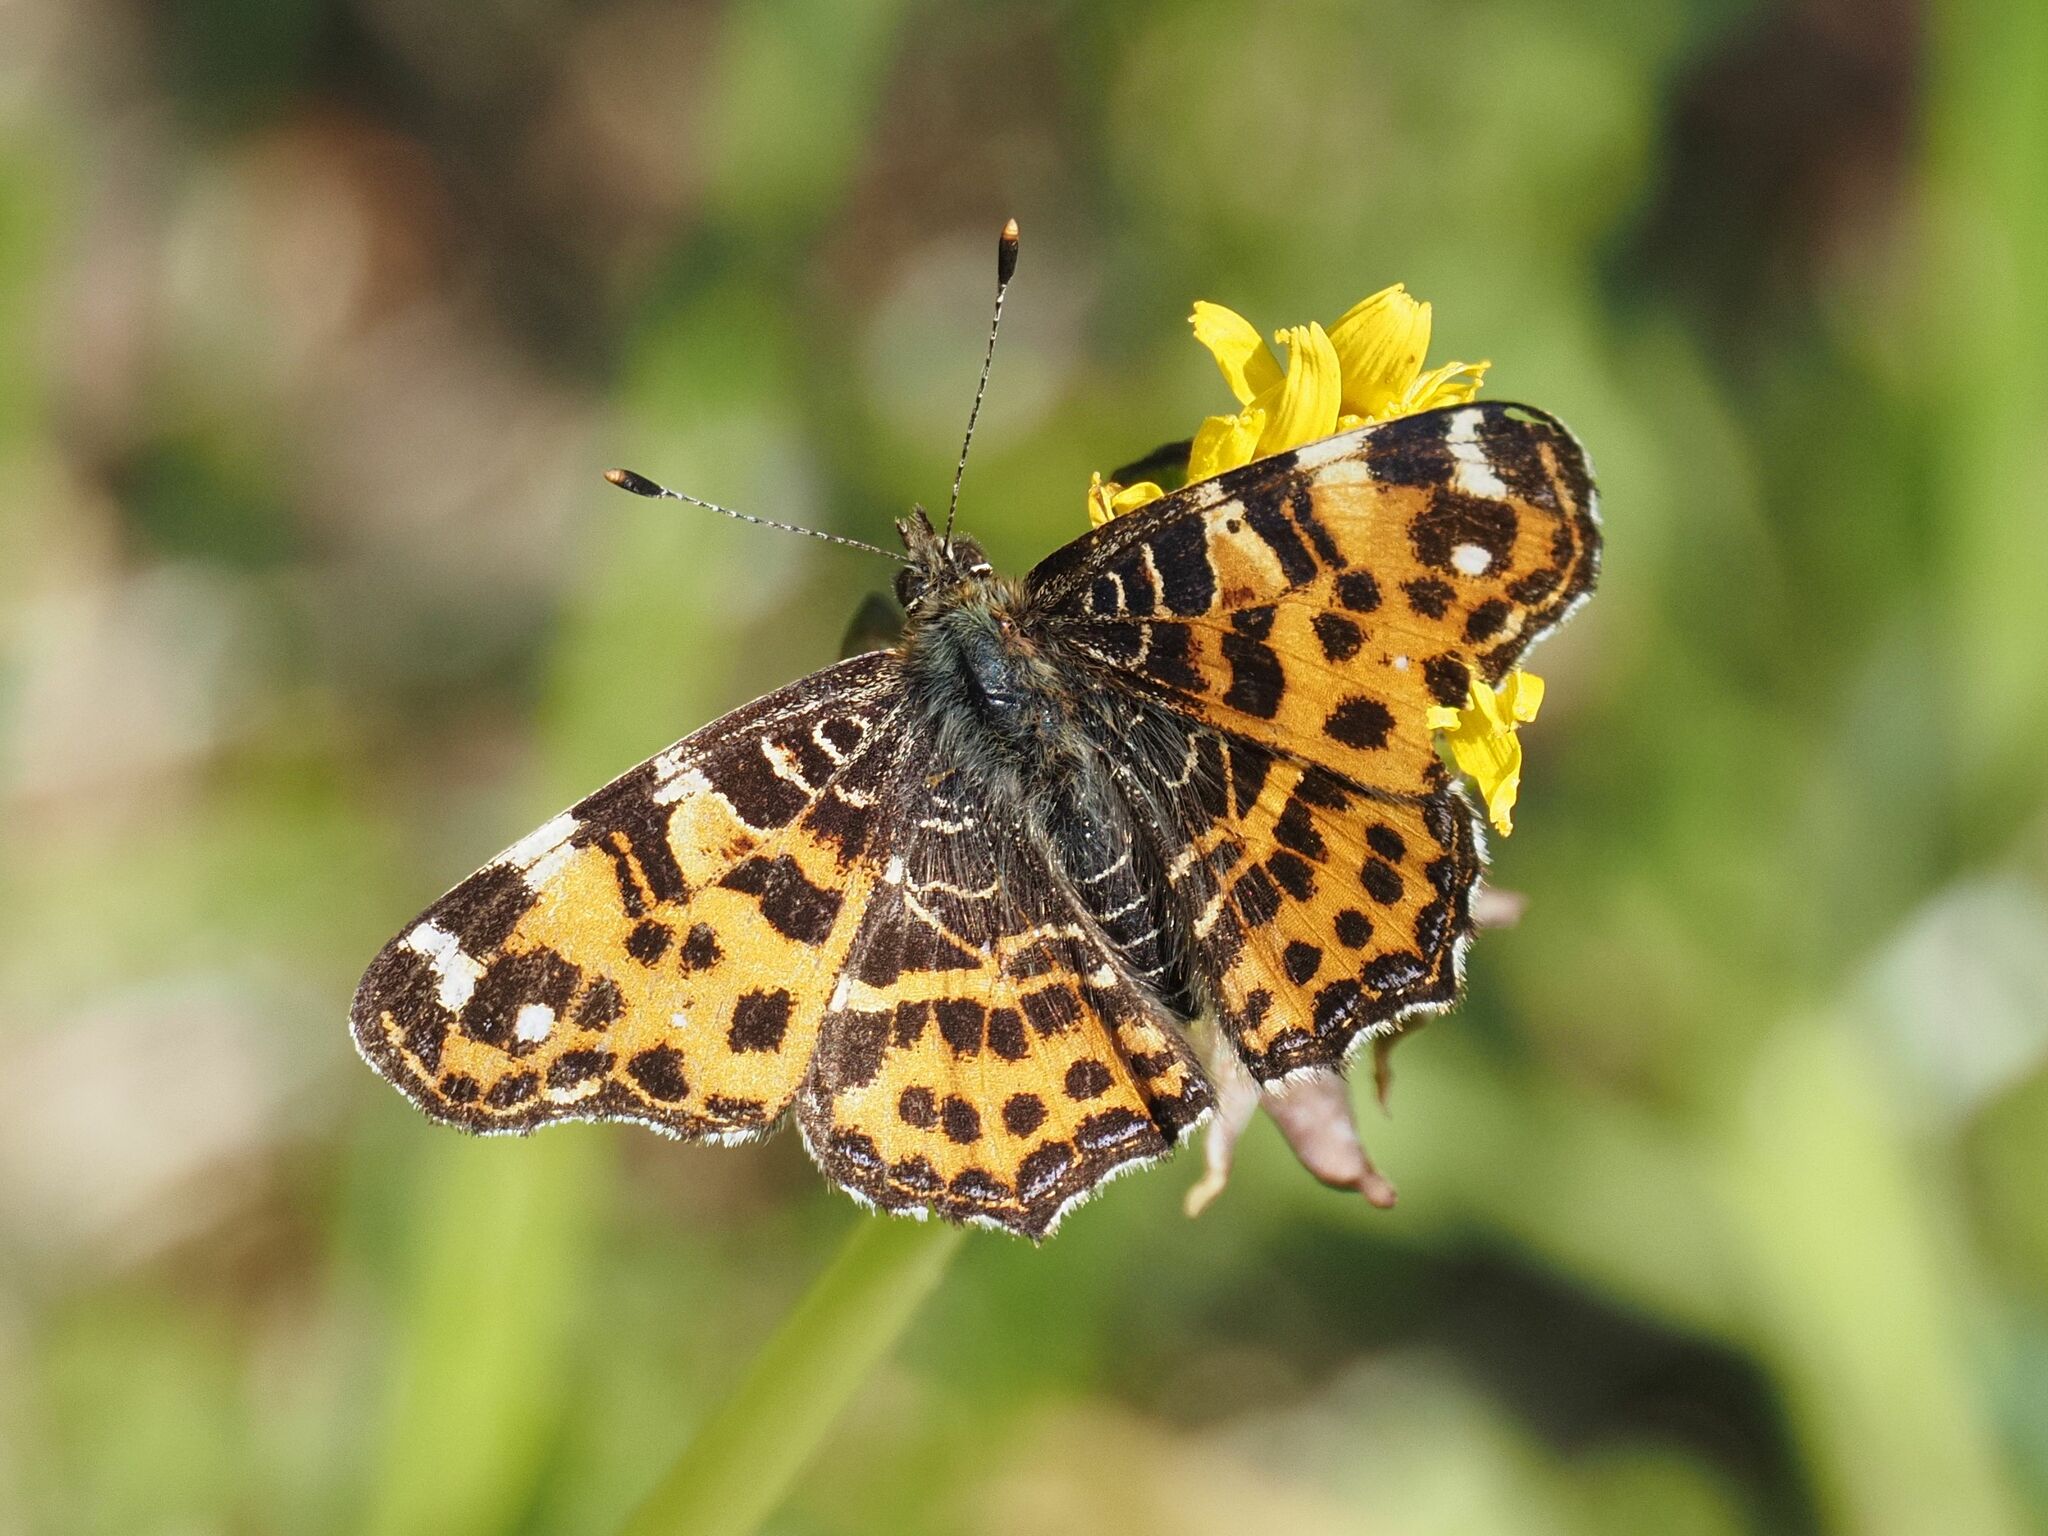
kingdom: Animalia
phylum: Arthropoda
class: Insecta
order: Lepidoptera
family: Nymphalidae
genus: Araschnia
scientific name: Araschnia levana
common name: Map butterfly
